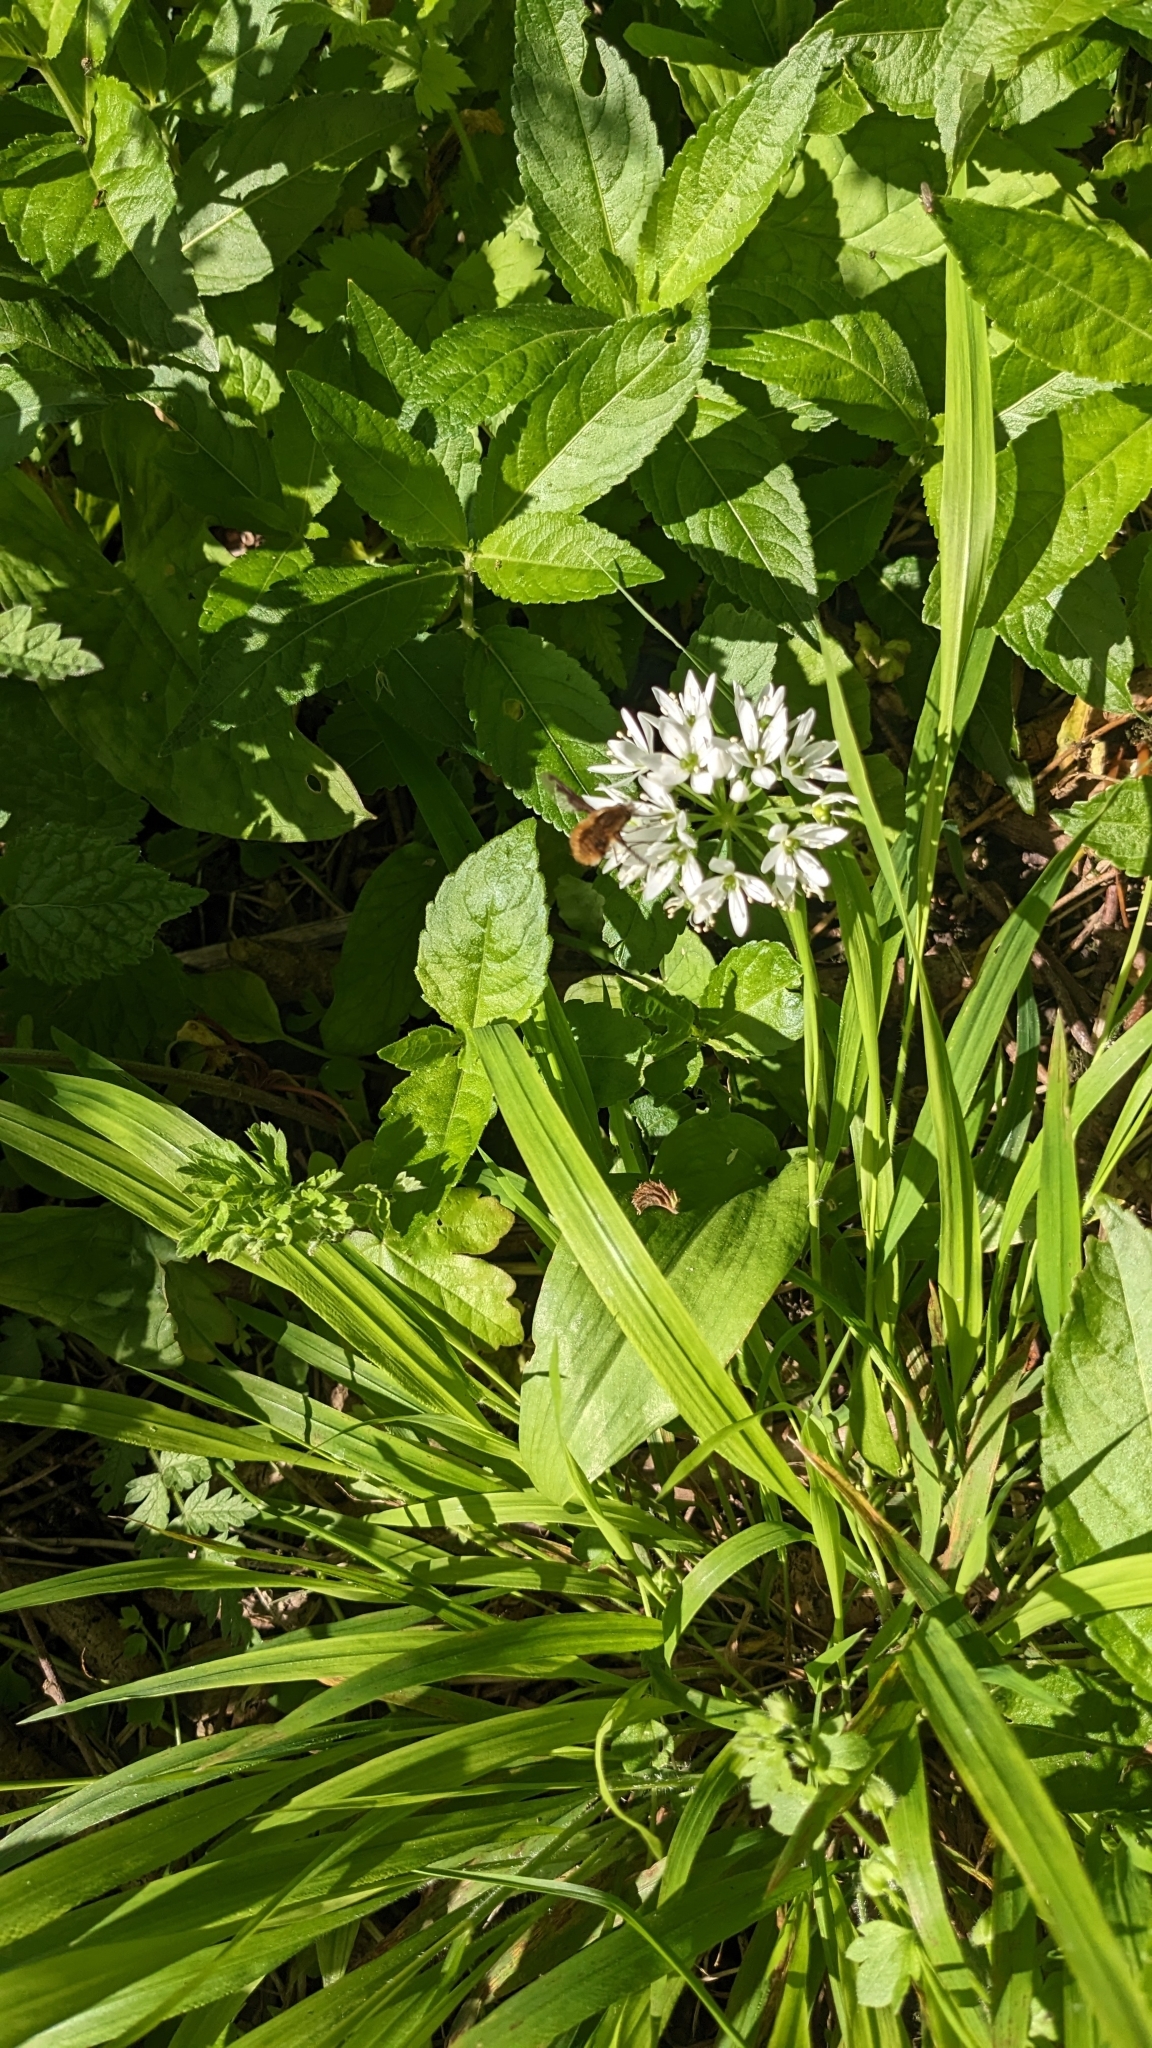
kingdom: Animalia
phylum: Arthropoda
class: Insecta
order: Diptera
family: Bombyliidae
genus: Bombylius
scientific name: Bombylius major
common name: Bee fly
